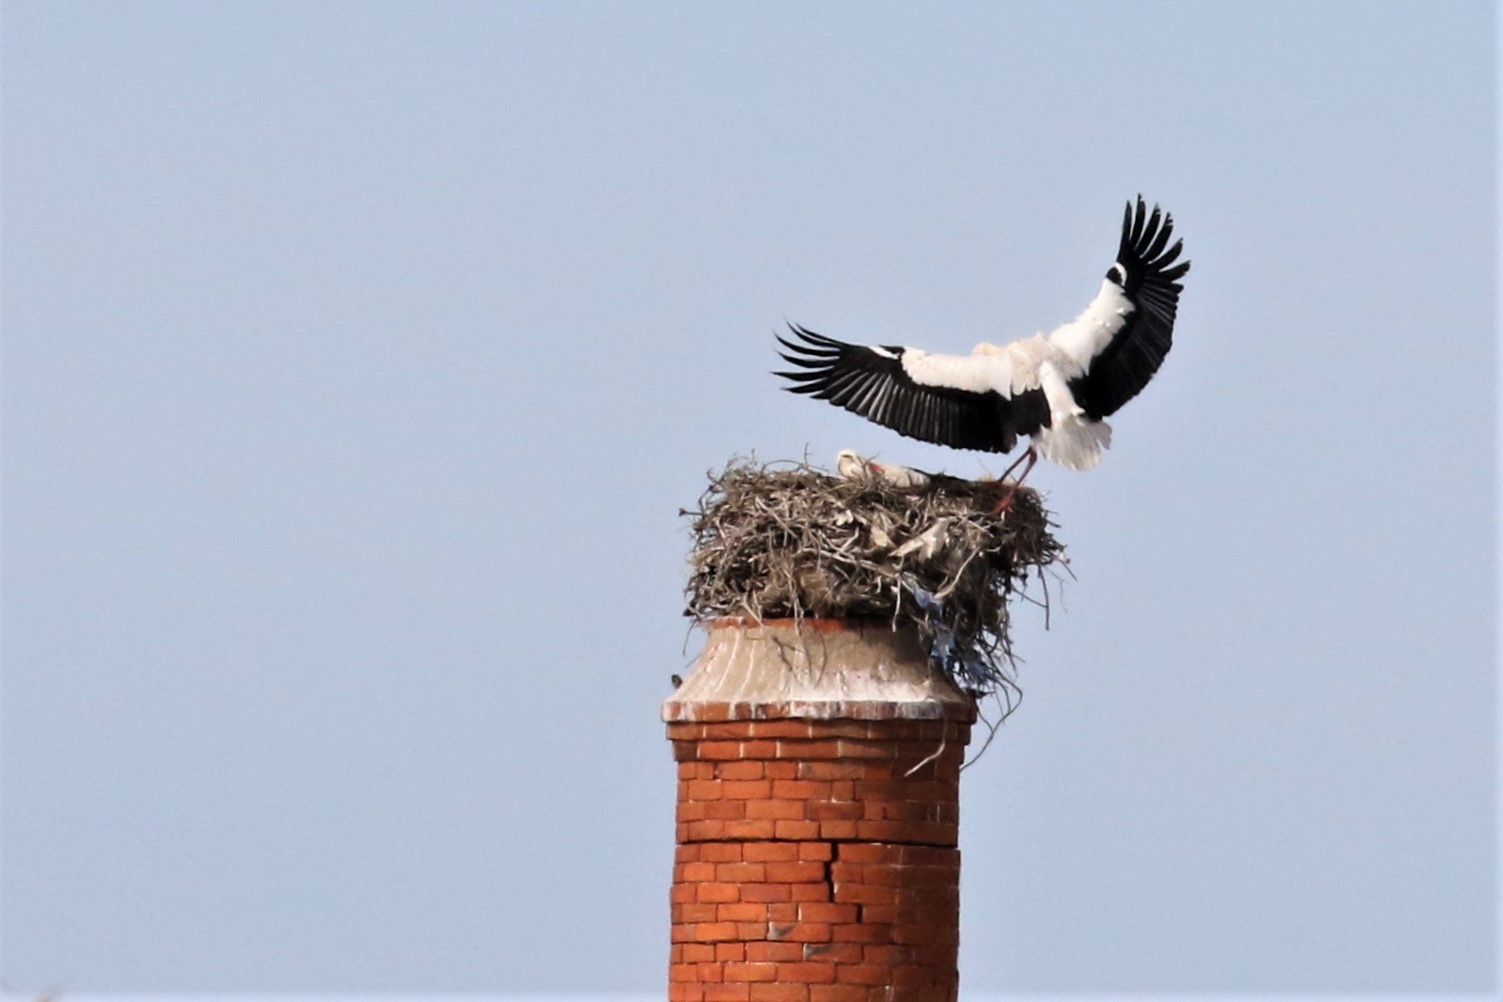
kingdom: Animalia
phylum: Chordata
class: Aves
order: Ciconiiformes
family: Ciconiidae
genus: Ciconia
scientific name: Ciconia ciconia
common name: White stork
